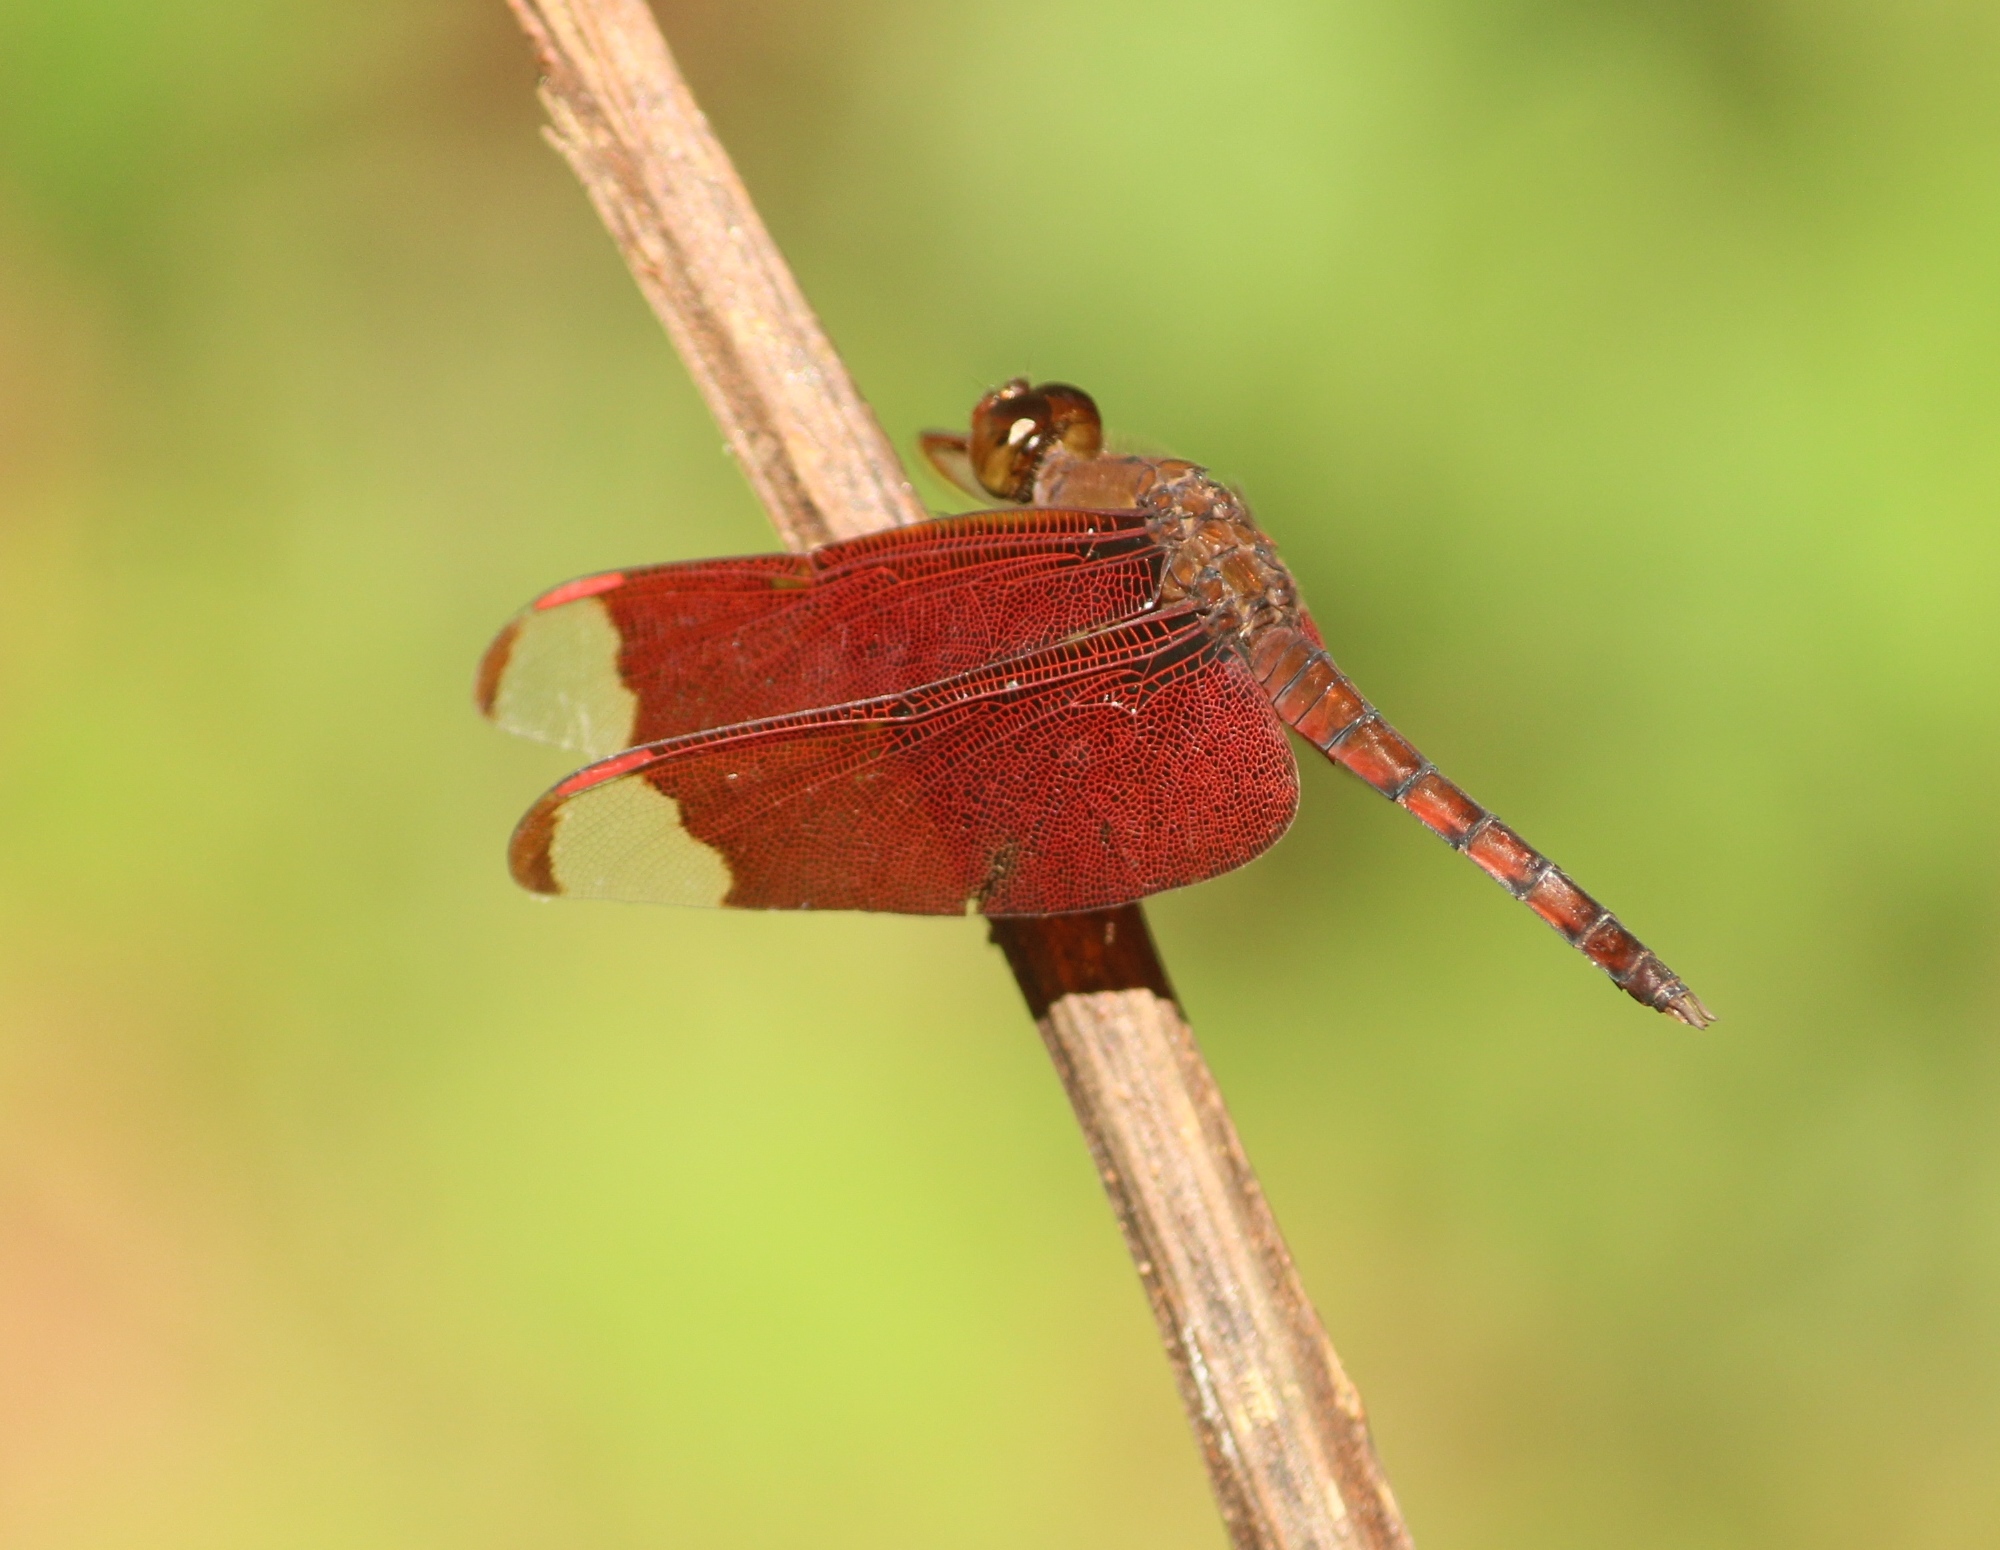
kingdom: Animalia
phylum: Arthropoda
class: Insecta
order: Odonata
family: Libellulidae
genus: Neurothemis
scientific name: Neurothemis fulvia
